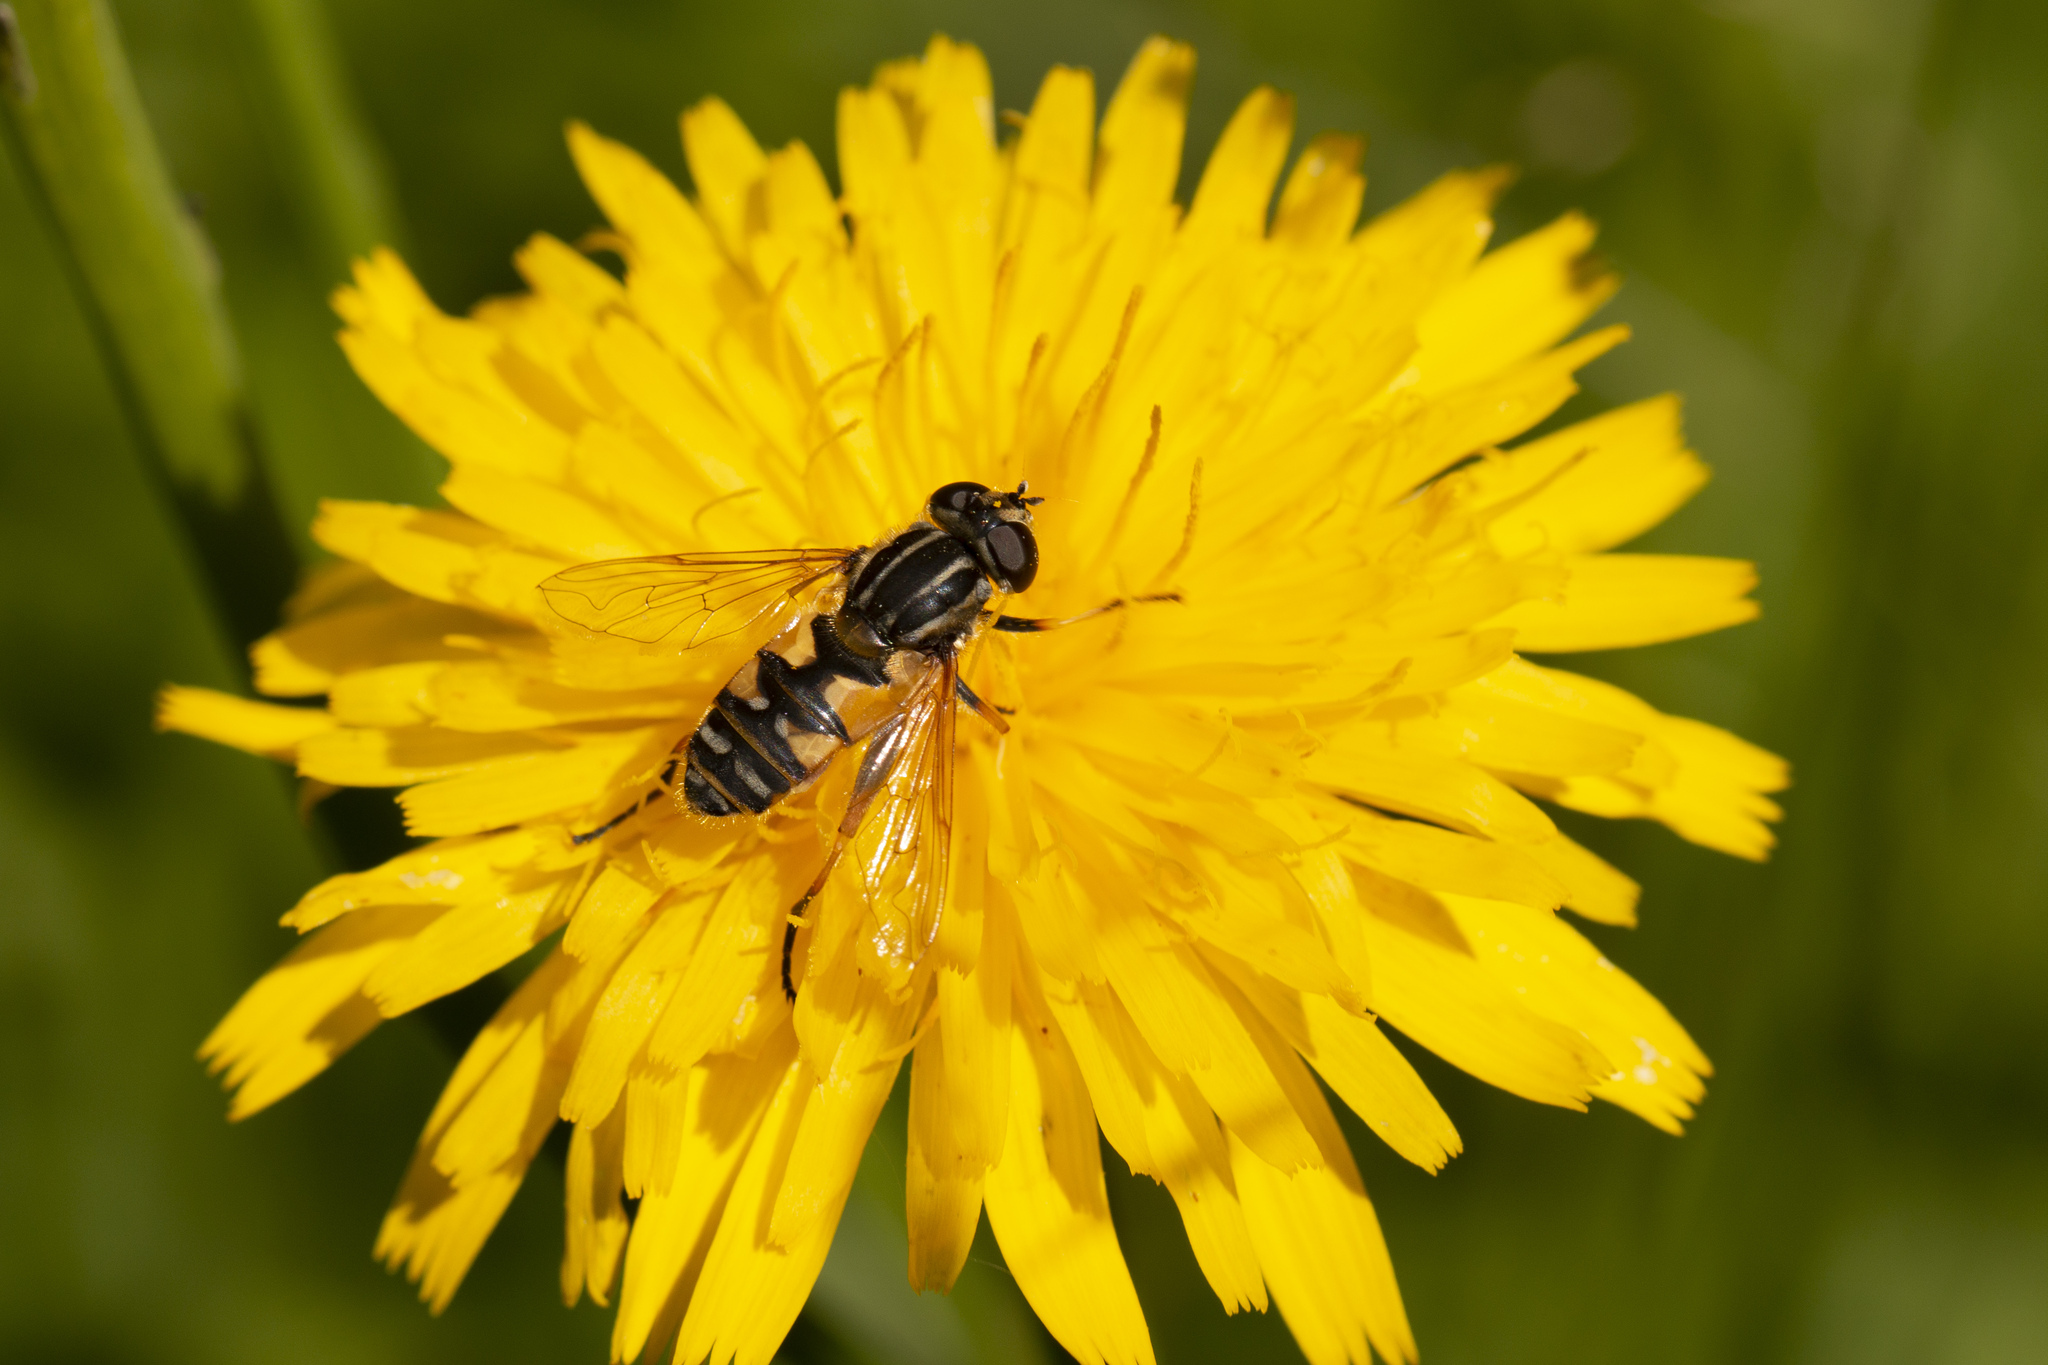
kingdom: Animalia
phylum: Arthropoda
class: Insecta
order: Diptera
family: Syrphidae
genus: Helophilus
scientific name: Helophilus pendulus
